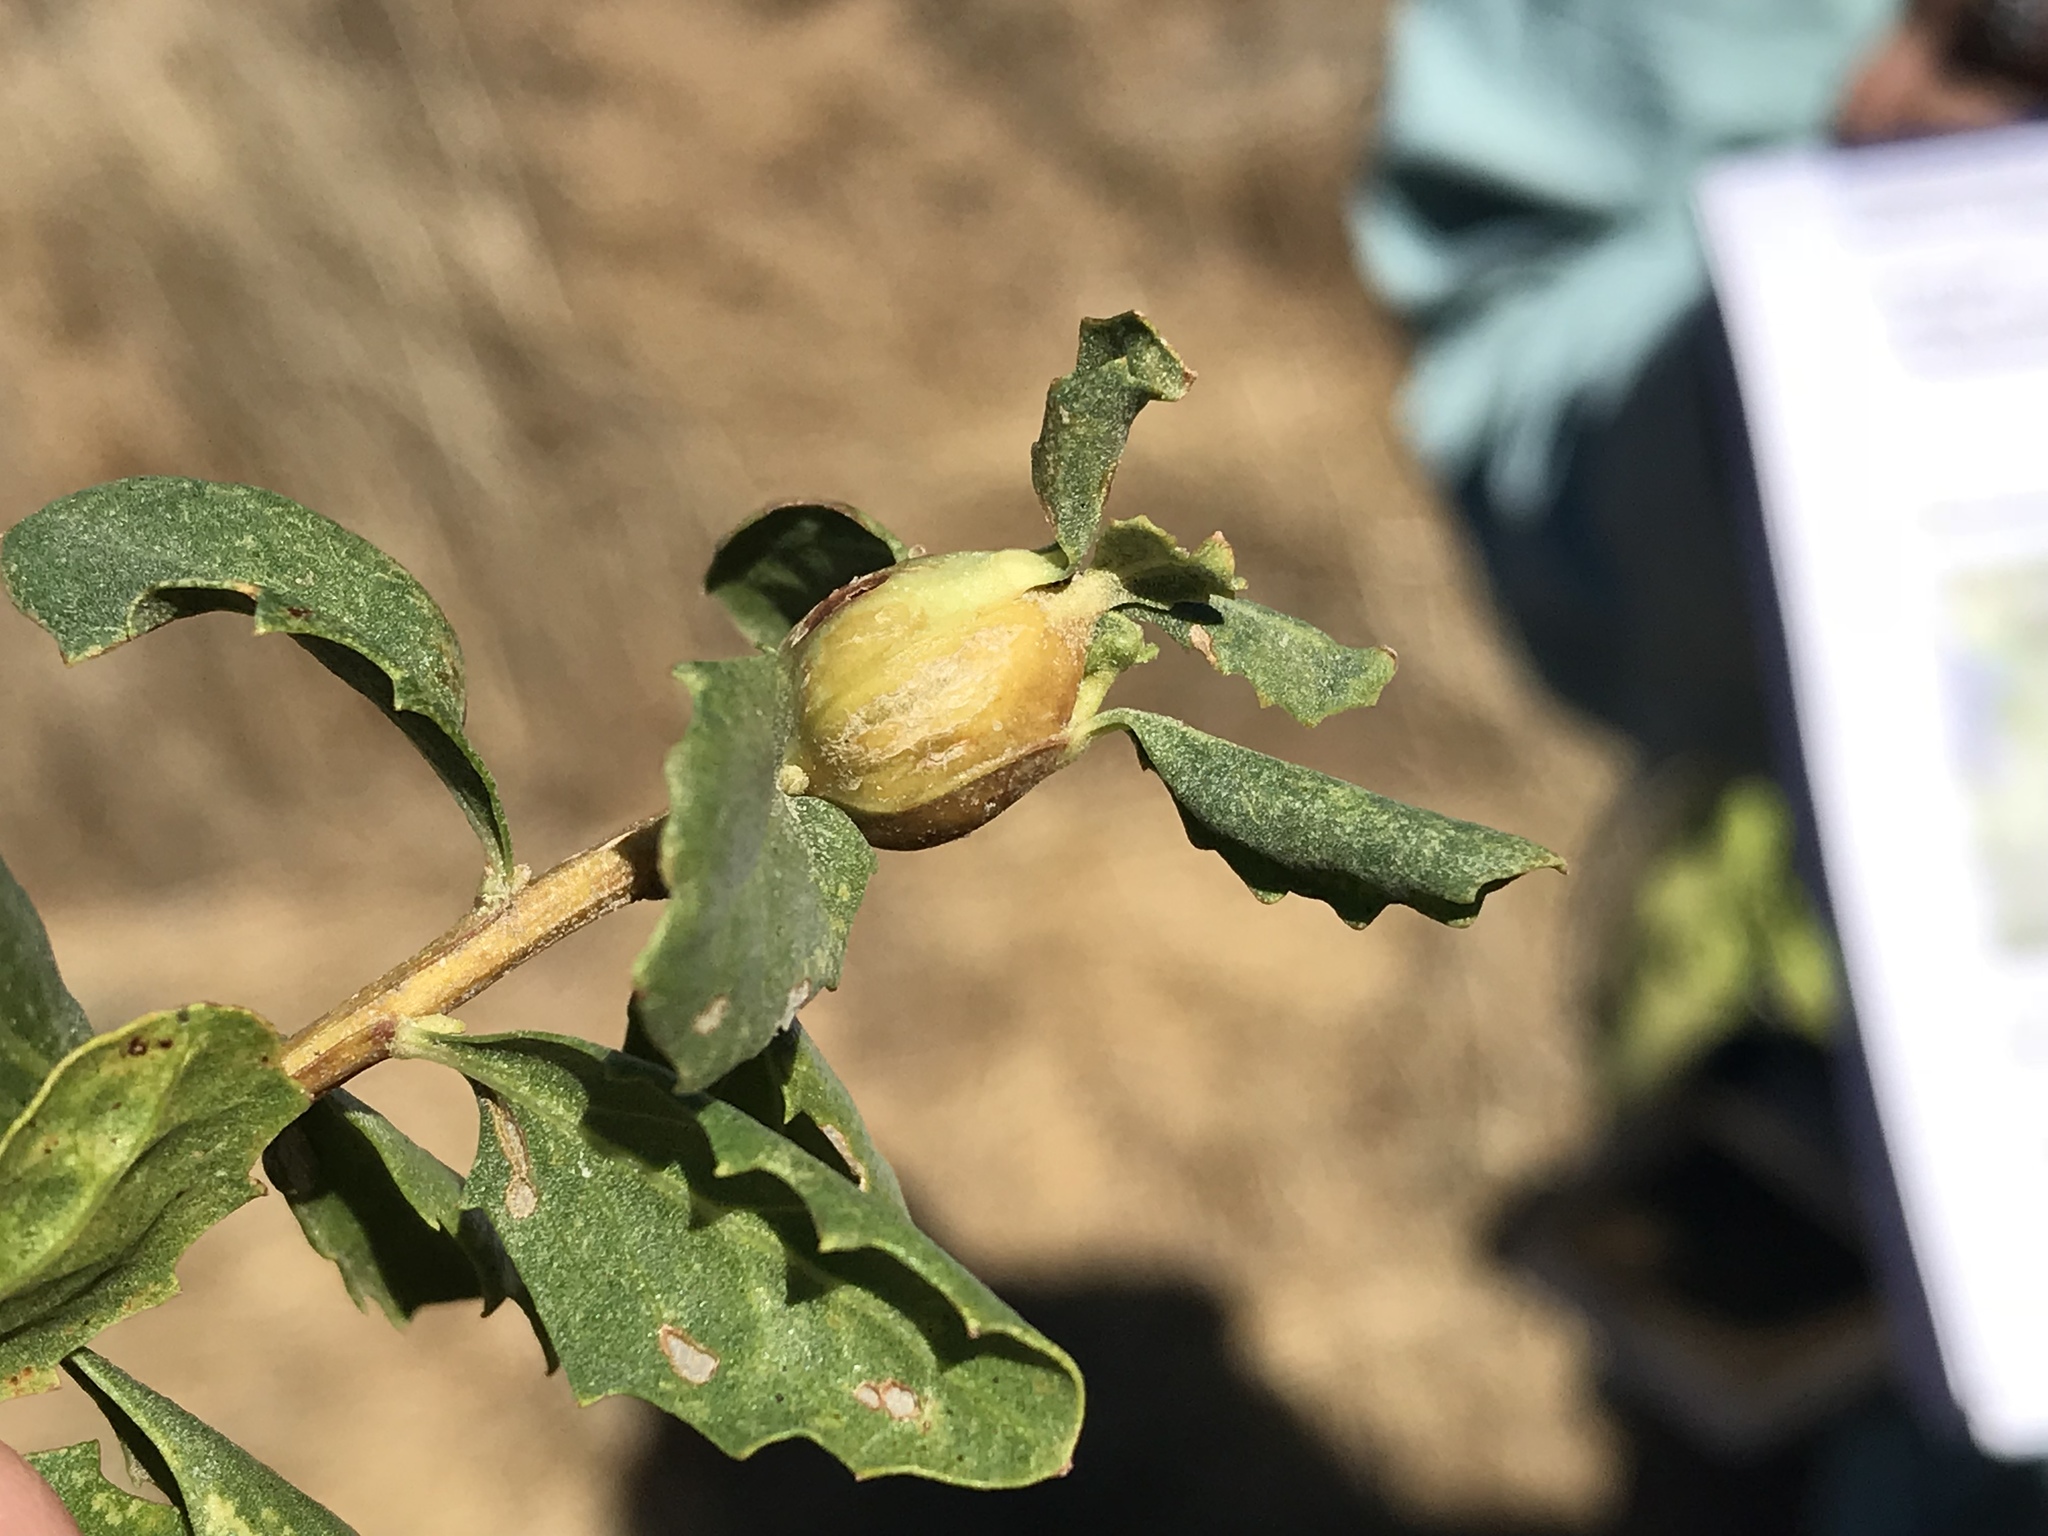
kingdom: Animalia
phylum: Arthropoda
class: Insecta
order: Lepidoptera
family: Gelechiidae
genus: Gnorimoschema
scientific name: Gnorimoschema baccharisella
